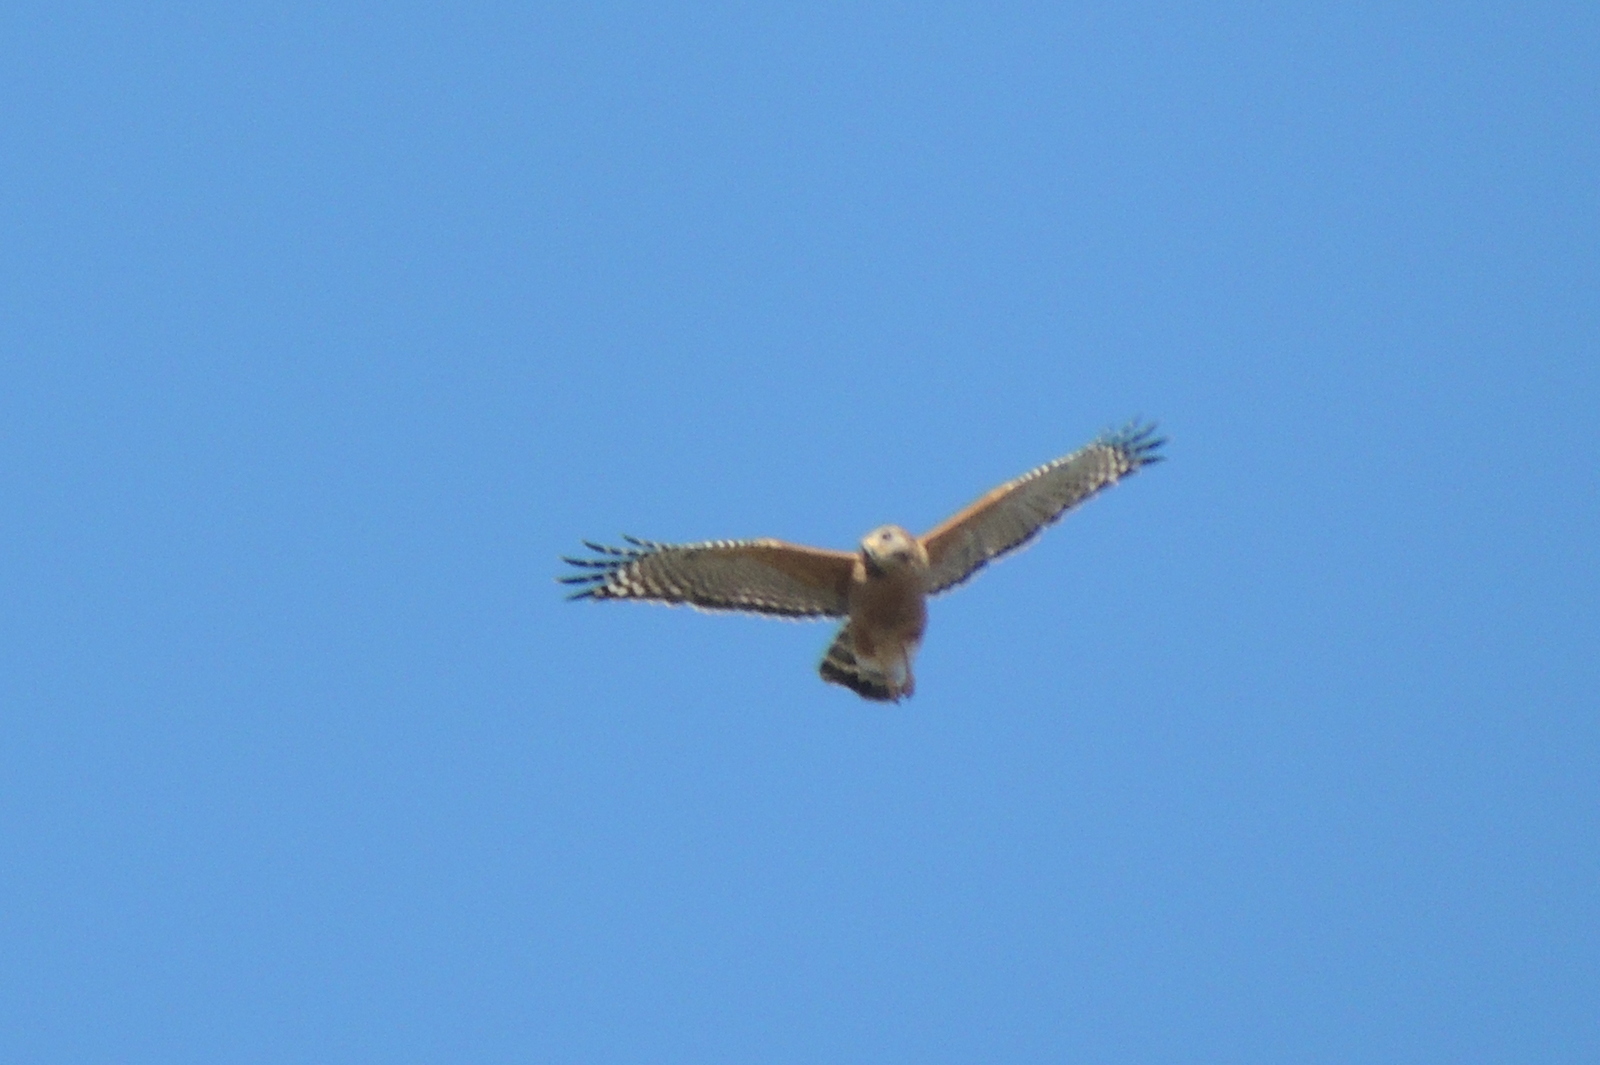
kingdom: Animalia
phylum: Chordata
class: Aves
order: Accipitriformes
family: Accipitridae
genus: Buteo
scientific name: Buteo lineatus
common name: Red-shouldered hawk
